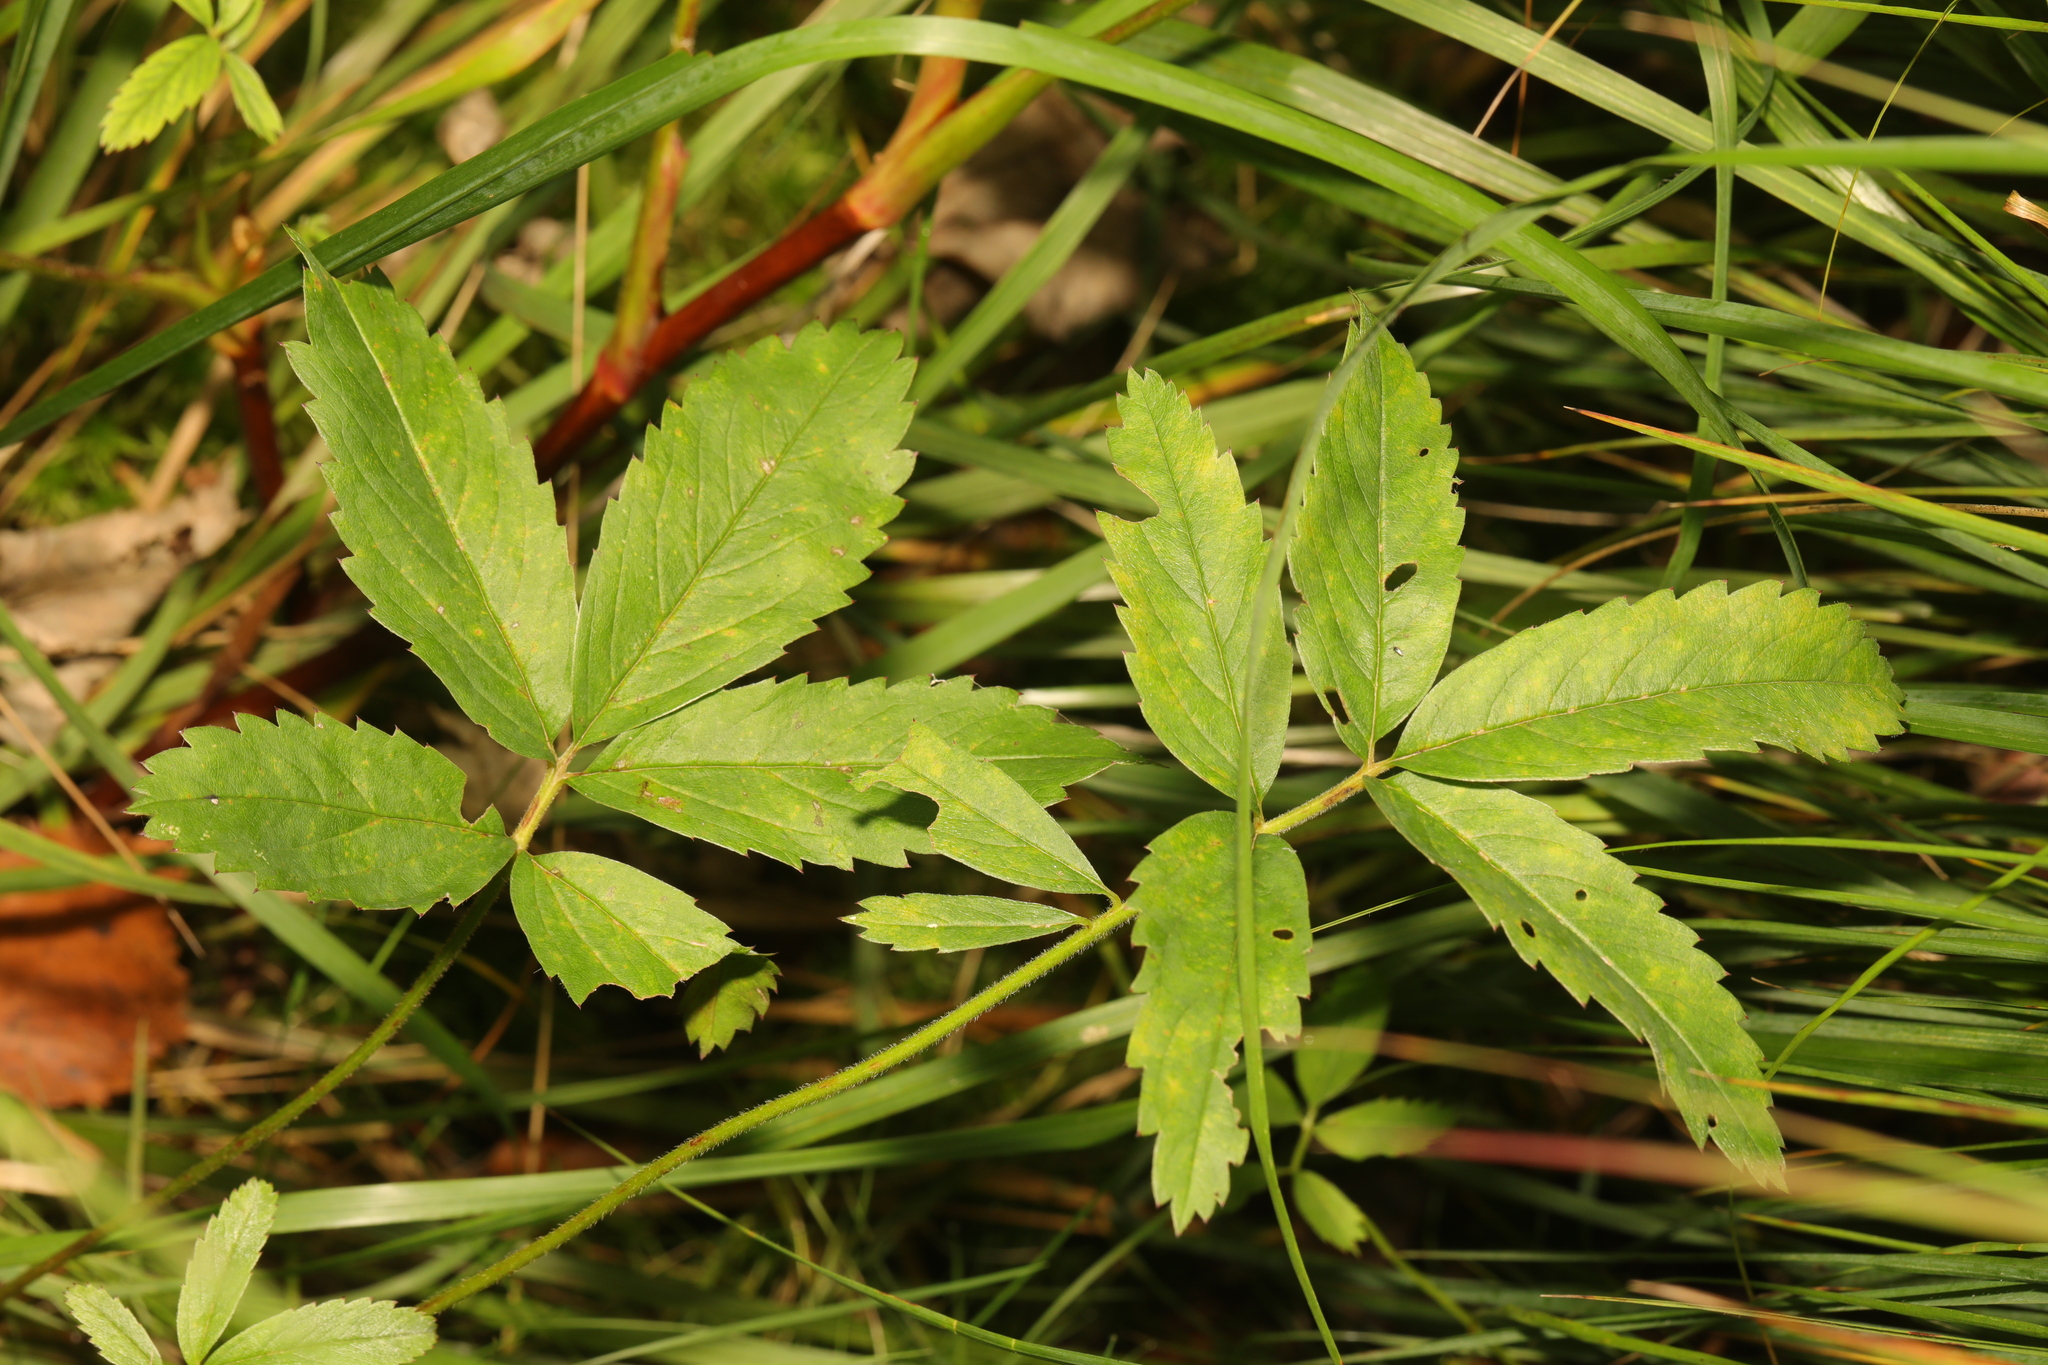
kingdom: Plantae
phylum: Tracheophyta
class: Magnoliopsida
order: Rosales
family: Rosaceae
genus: Comarum
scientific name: Comarum palustre
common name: Marsh cinquefoil
